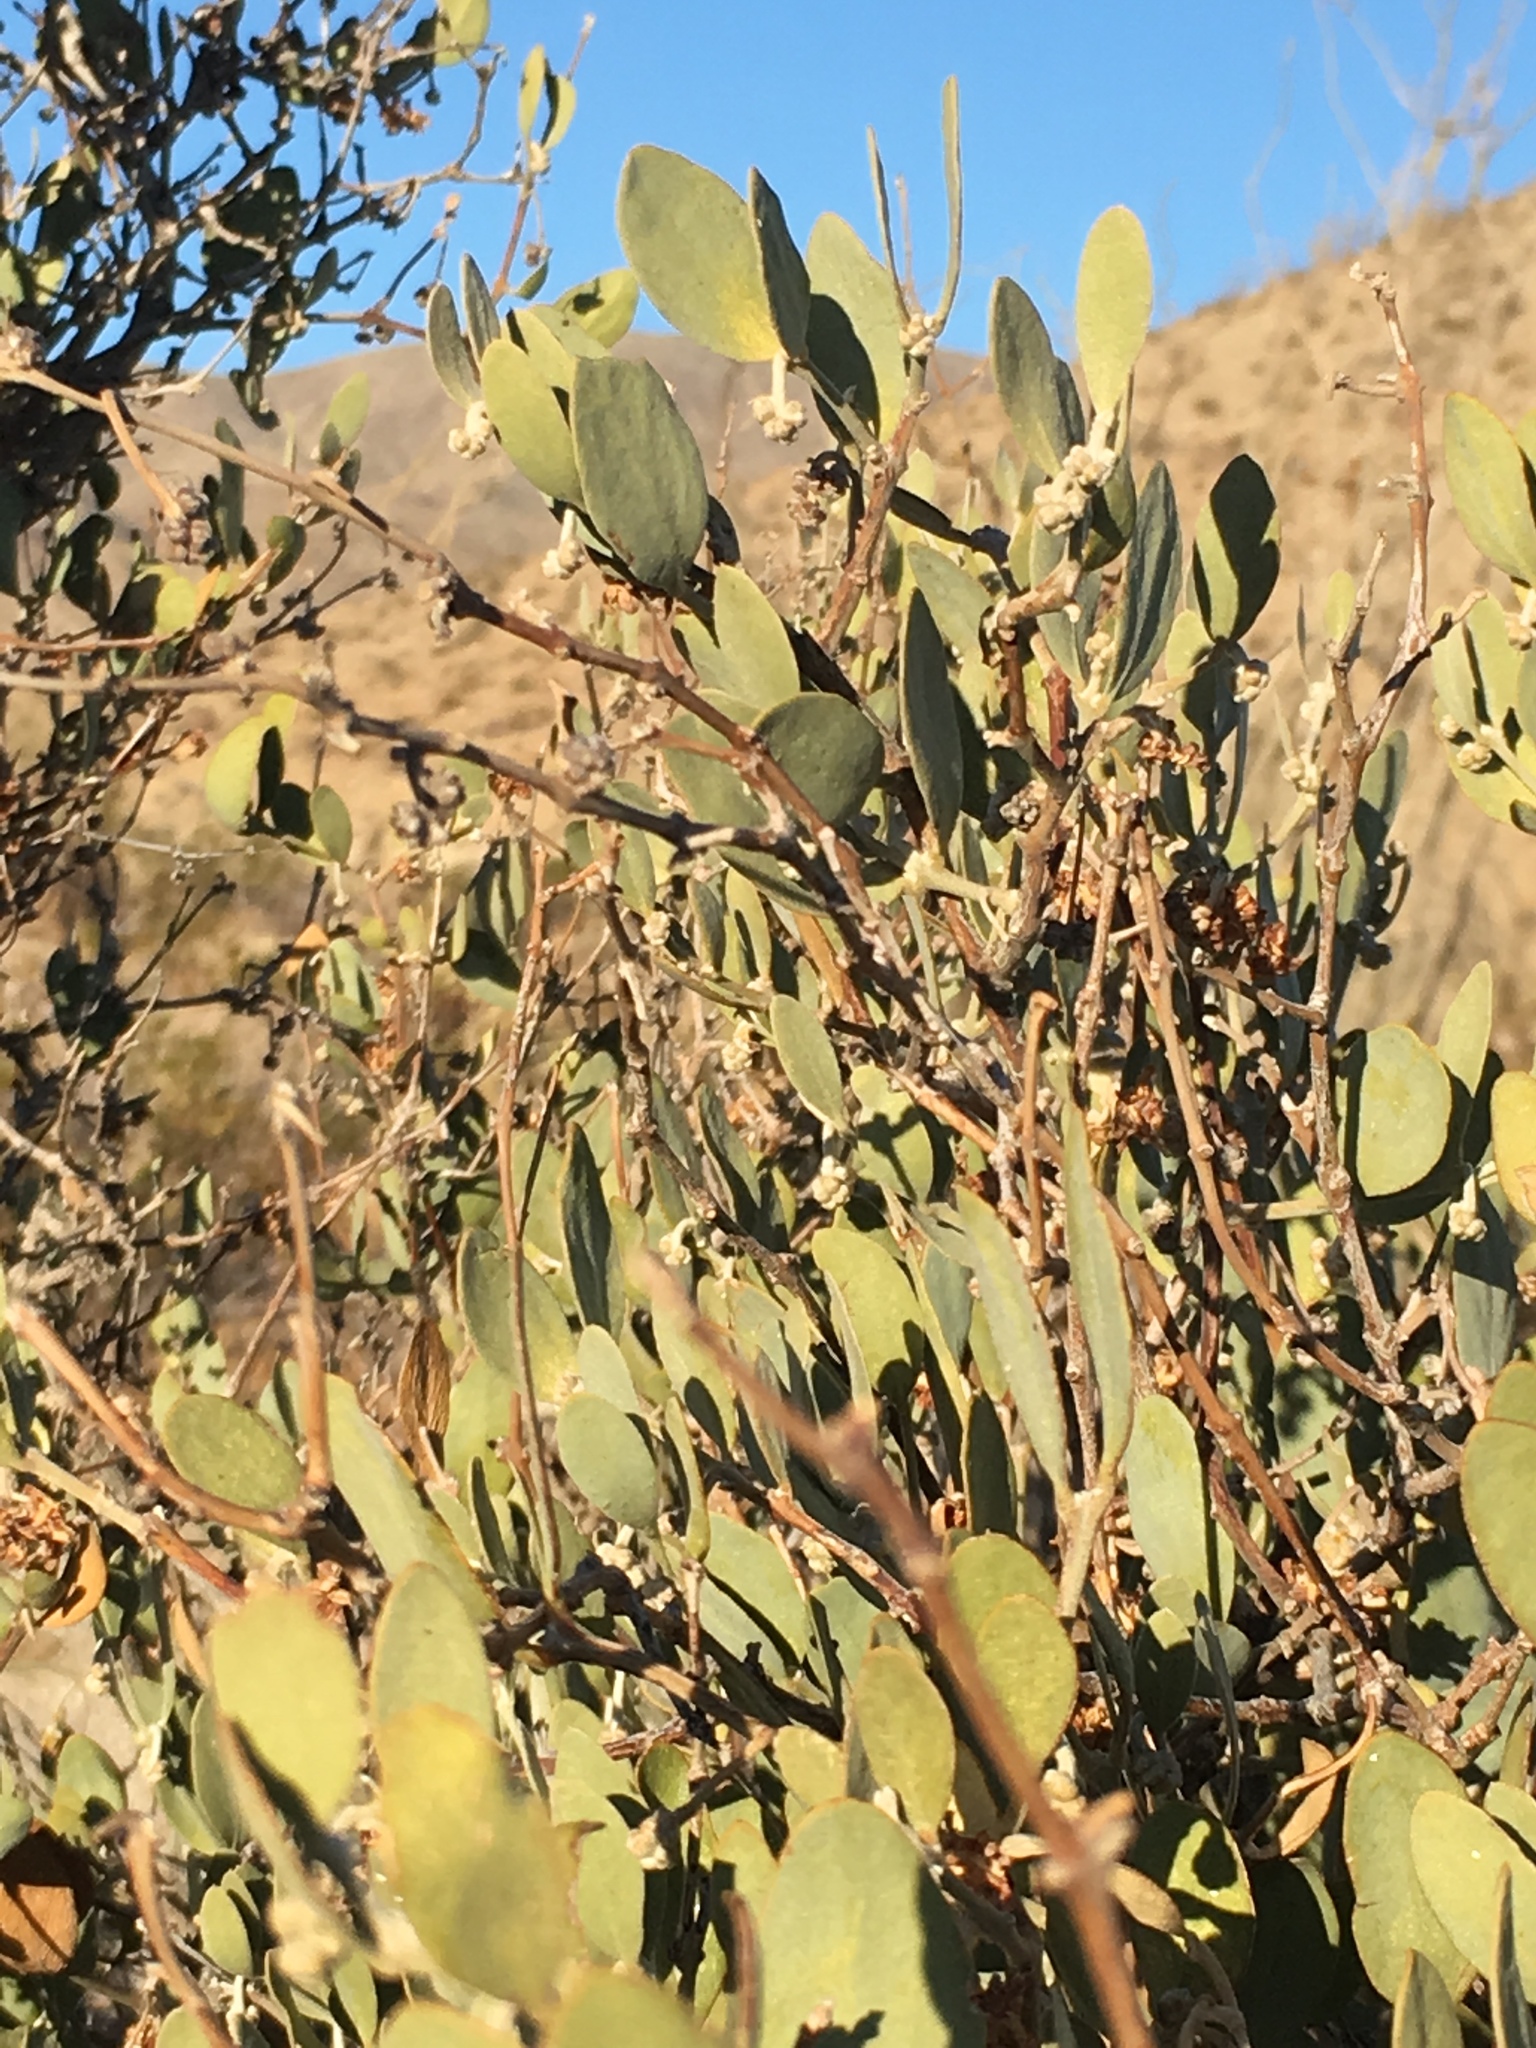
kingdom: Plantae
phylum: Tracheophyta
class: Magnoliopsida
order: Caryophyllales
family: Simmondsiaceae
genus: Simmondsia
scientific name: Simmondsia chinensis
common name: Jojoba
